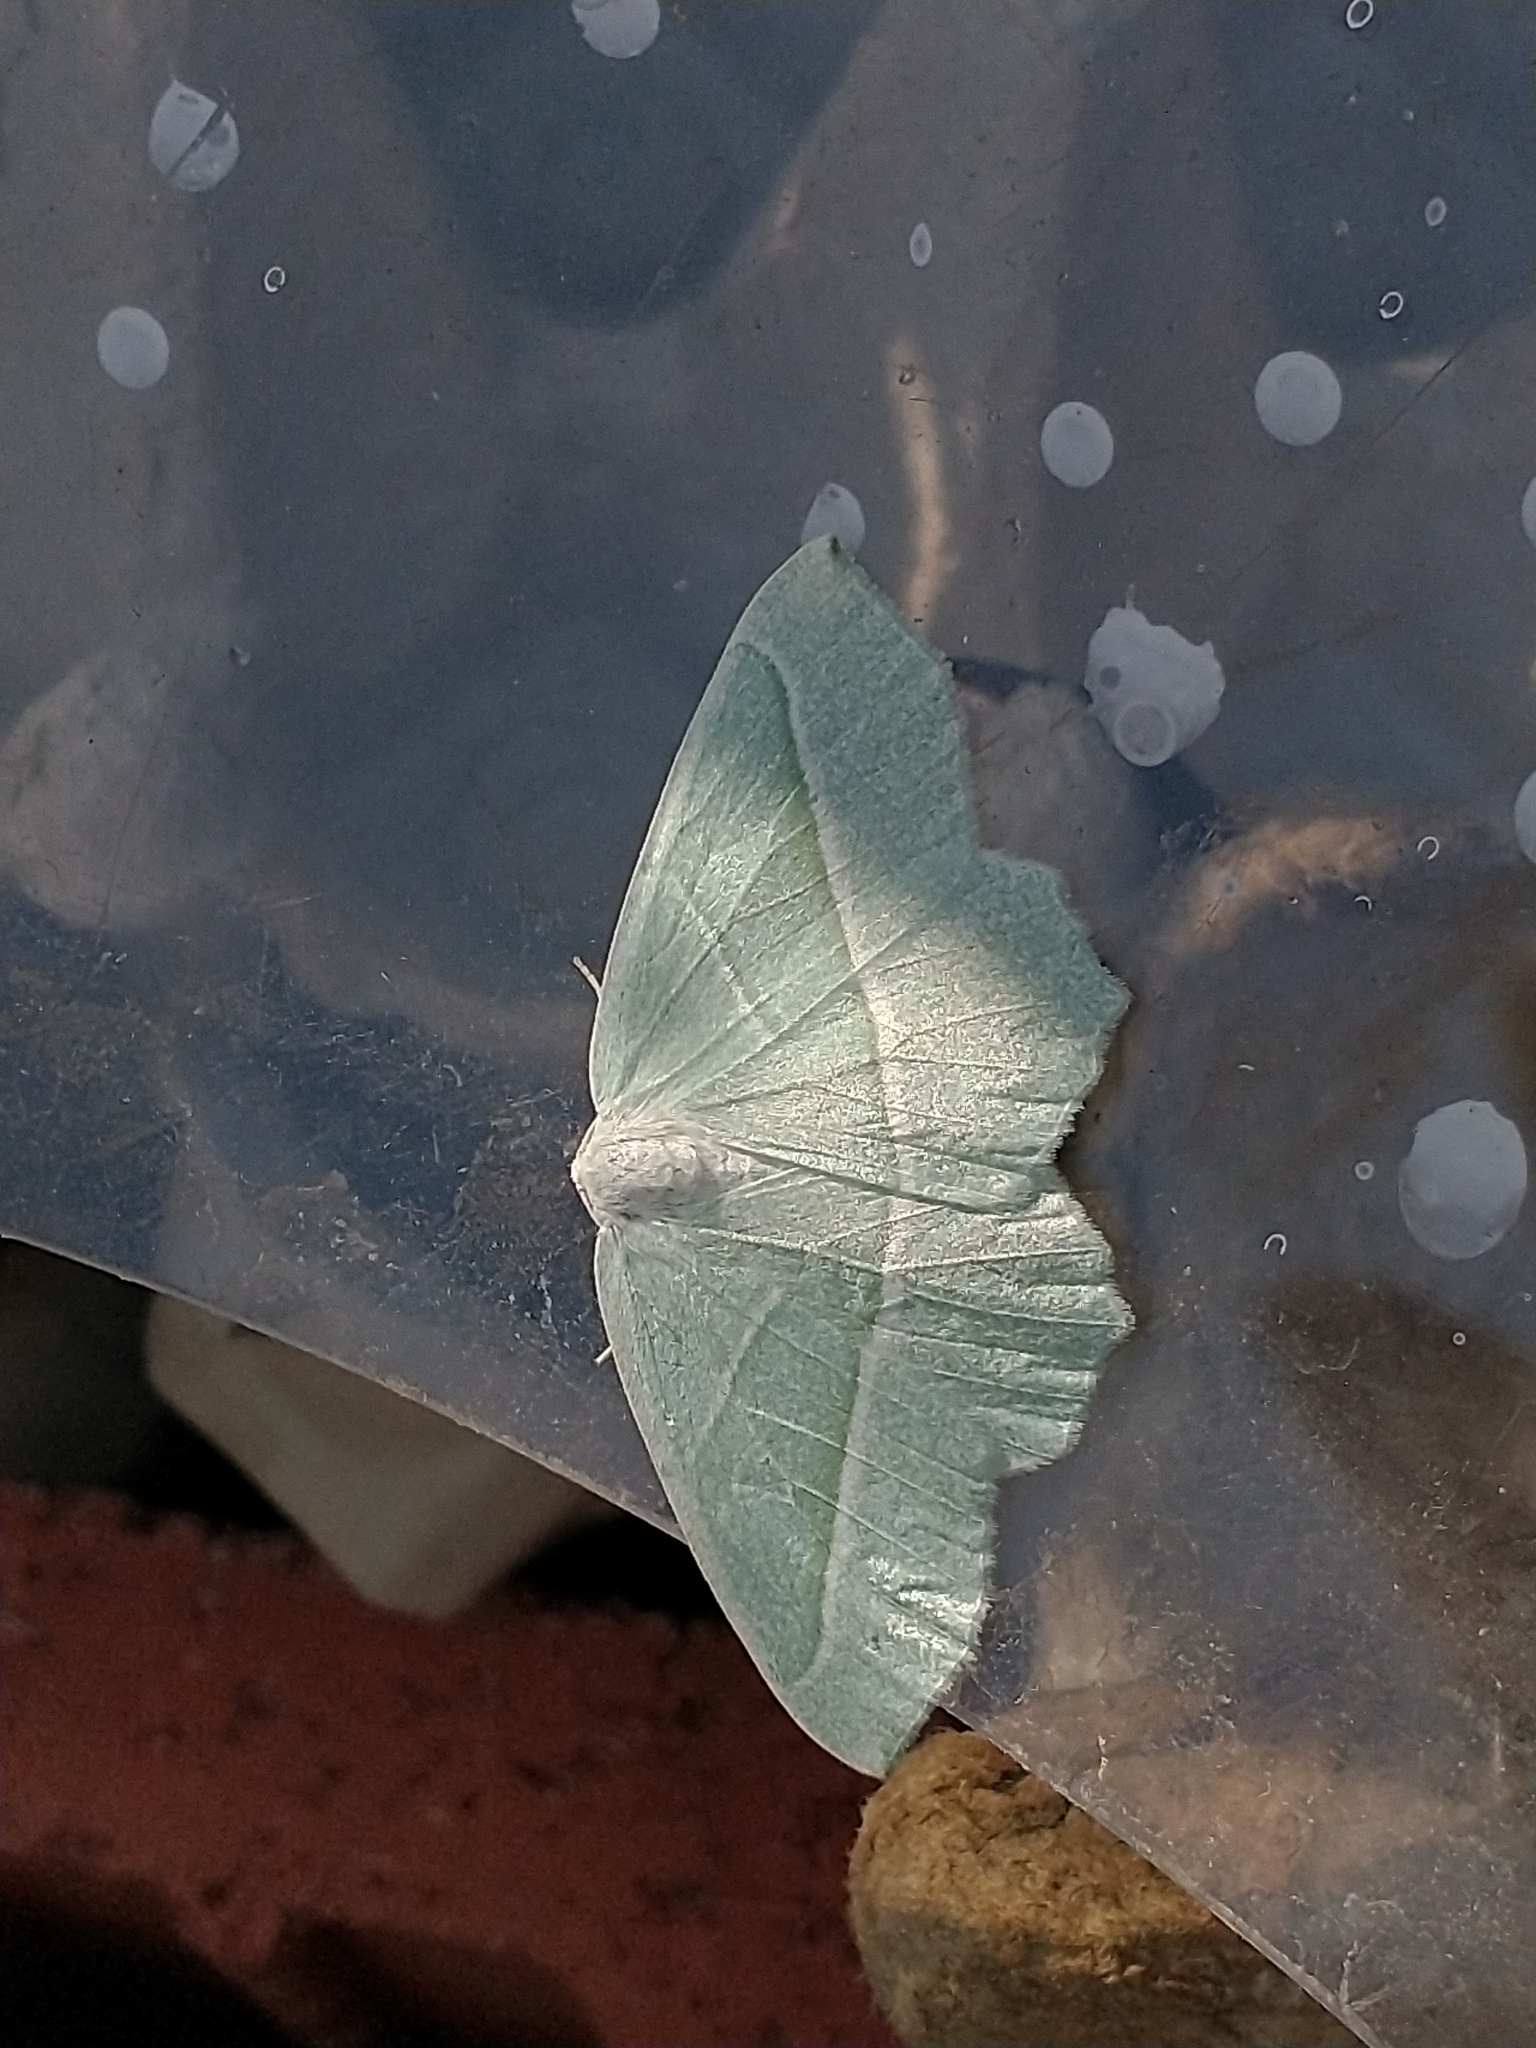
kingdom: Animalia
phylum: Arthropoda
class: Insecta
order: Lepidoptera
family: Geometridae
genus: Campaea
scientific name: Campaea margaritaria
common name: Light emerald
